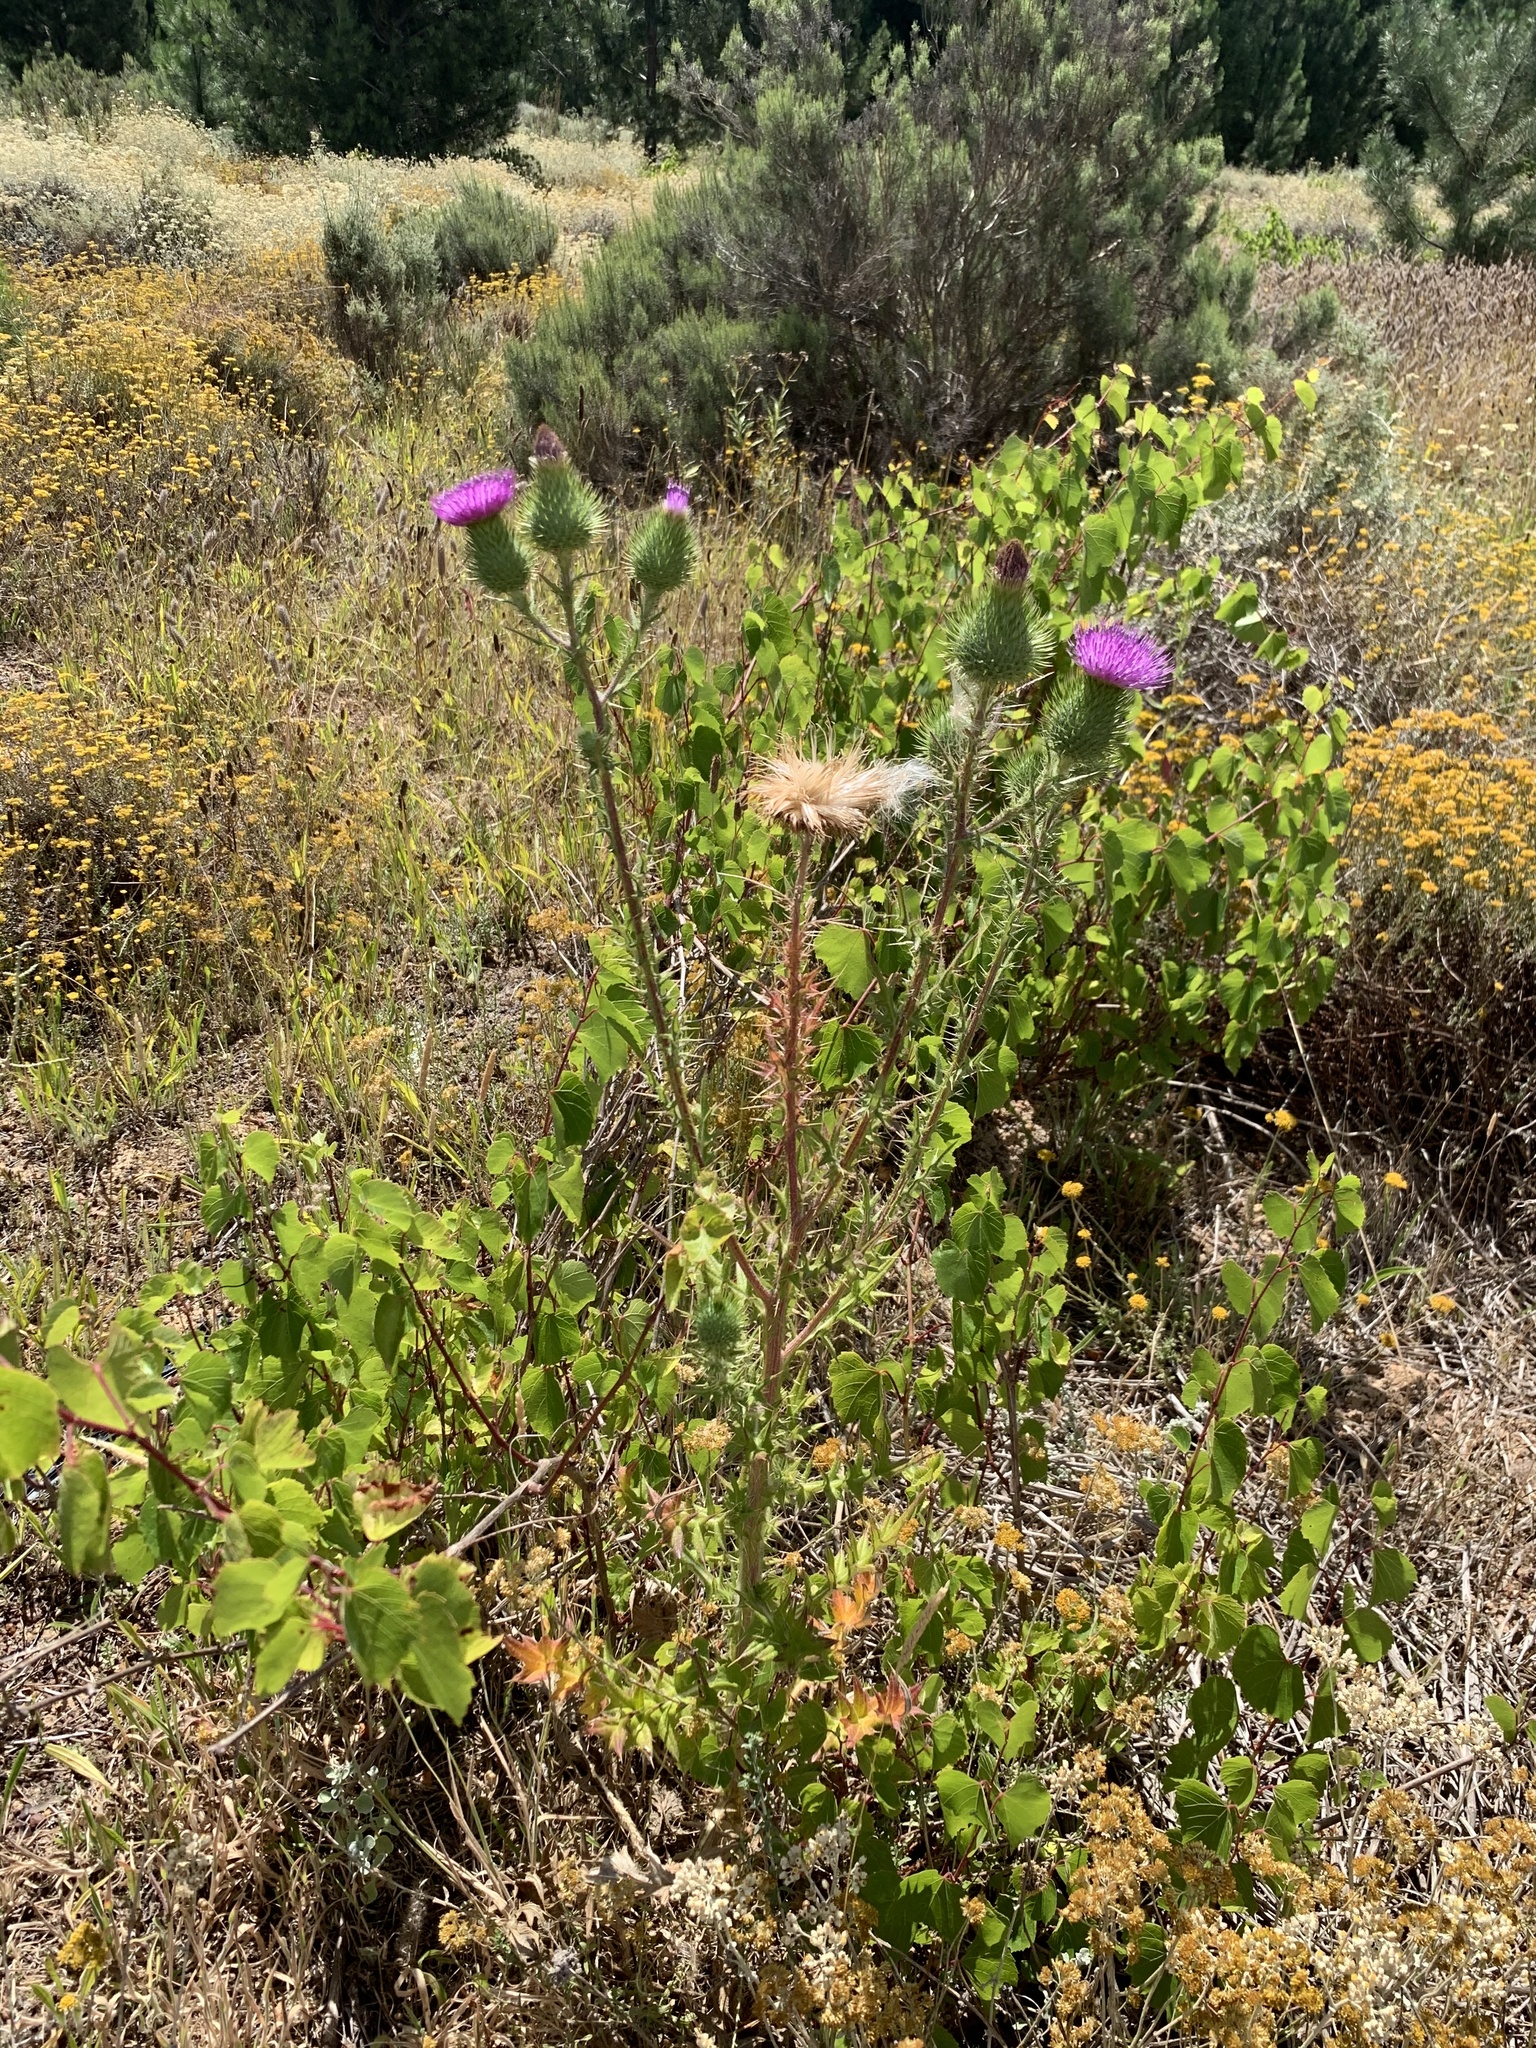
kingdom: Plantae
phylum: Tracheophyta
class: Magnoliopsida
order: Asterales
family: Asteraceae
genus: Cirsium
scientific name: Cirsium vulgare
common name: Bull thistle
